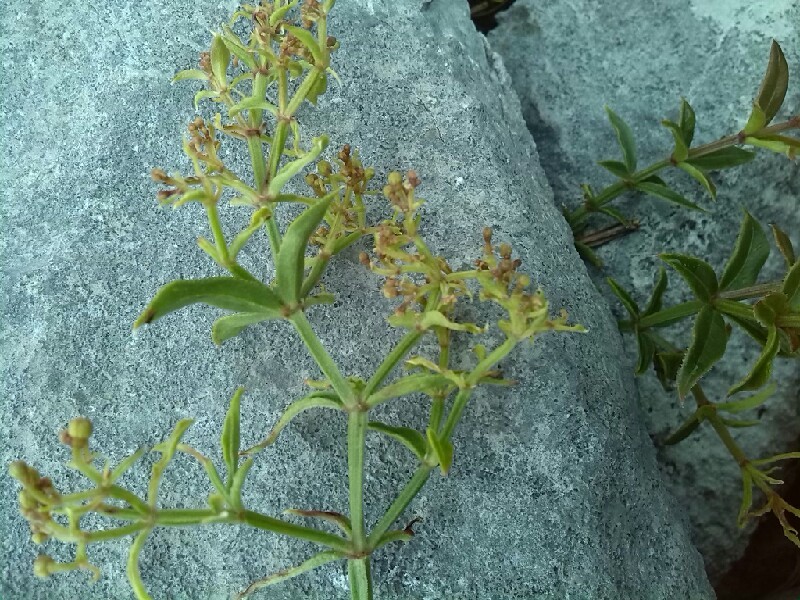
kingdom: Plantae
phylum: Tracheophyta
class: Magnoliopsida
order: Gentianales
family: Rubiaceae
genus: Rubia
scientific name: Rubia peregrina
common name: Wild madder
